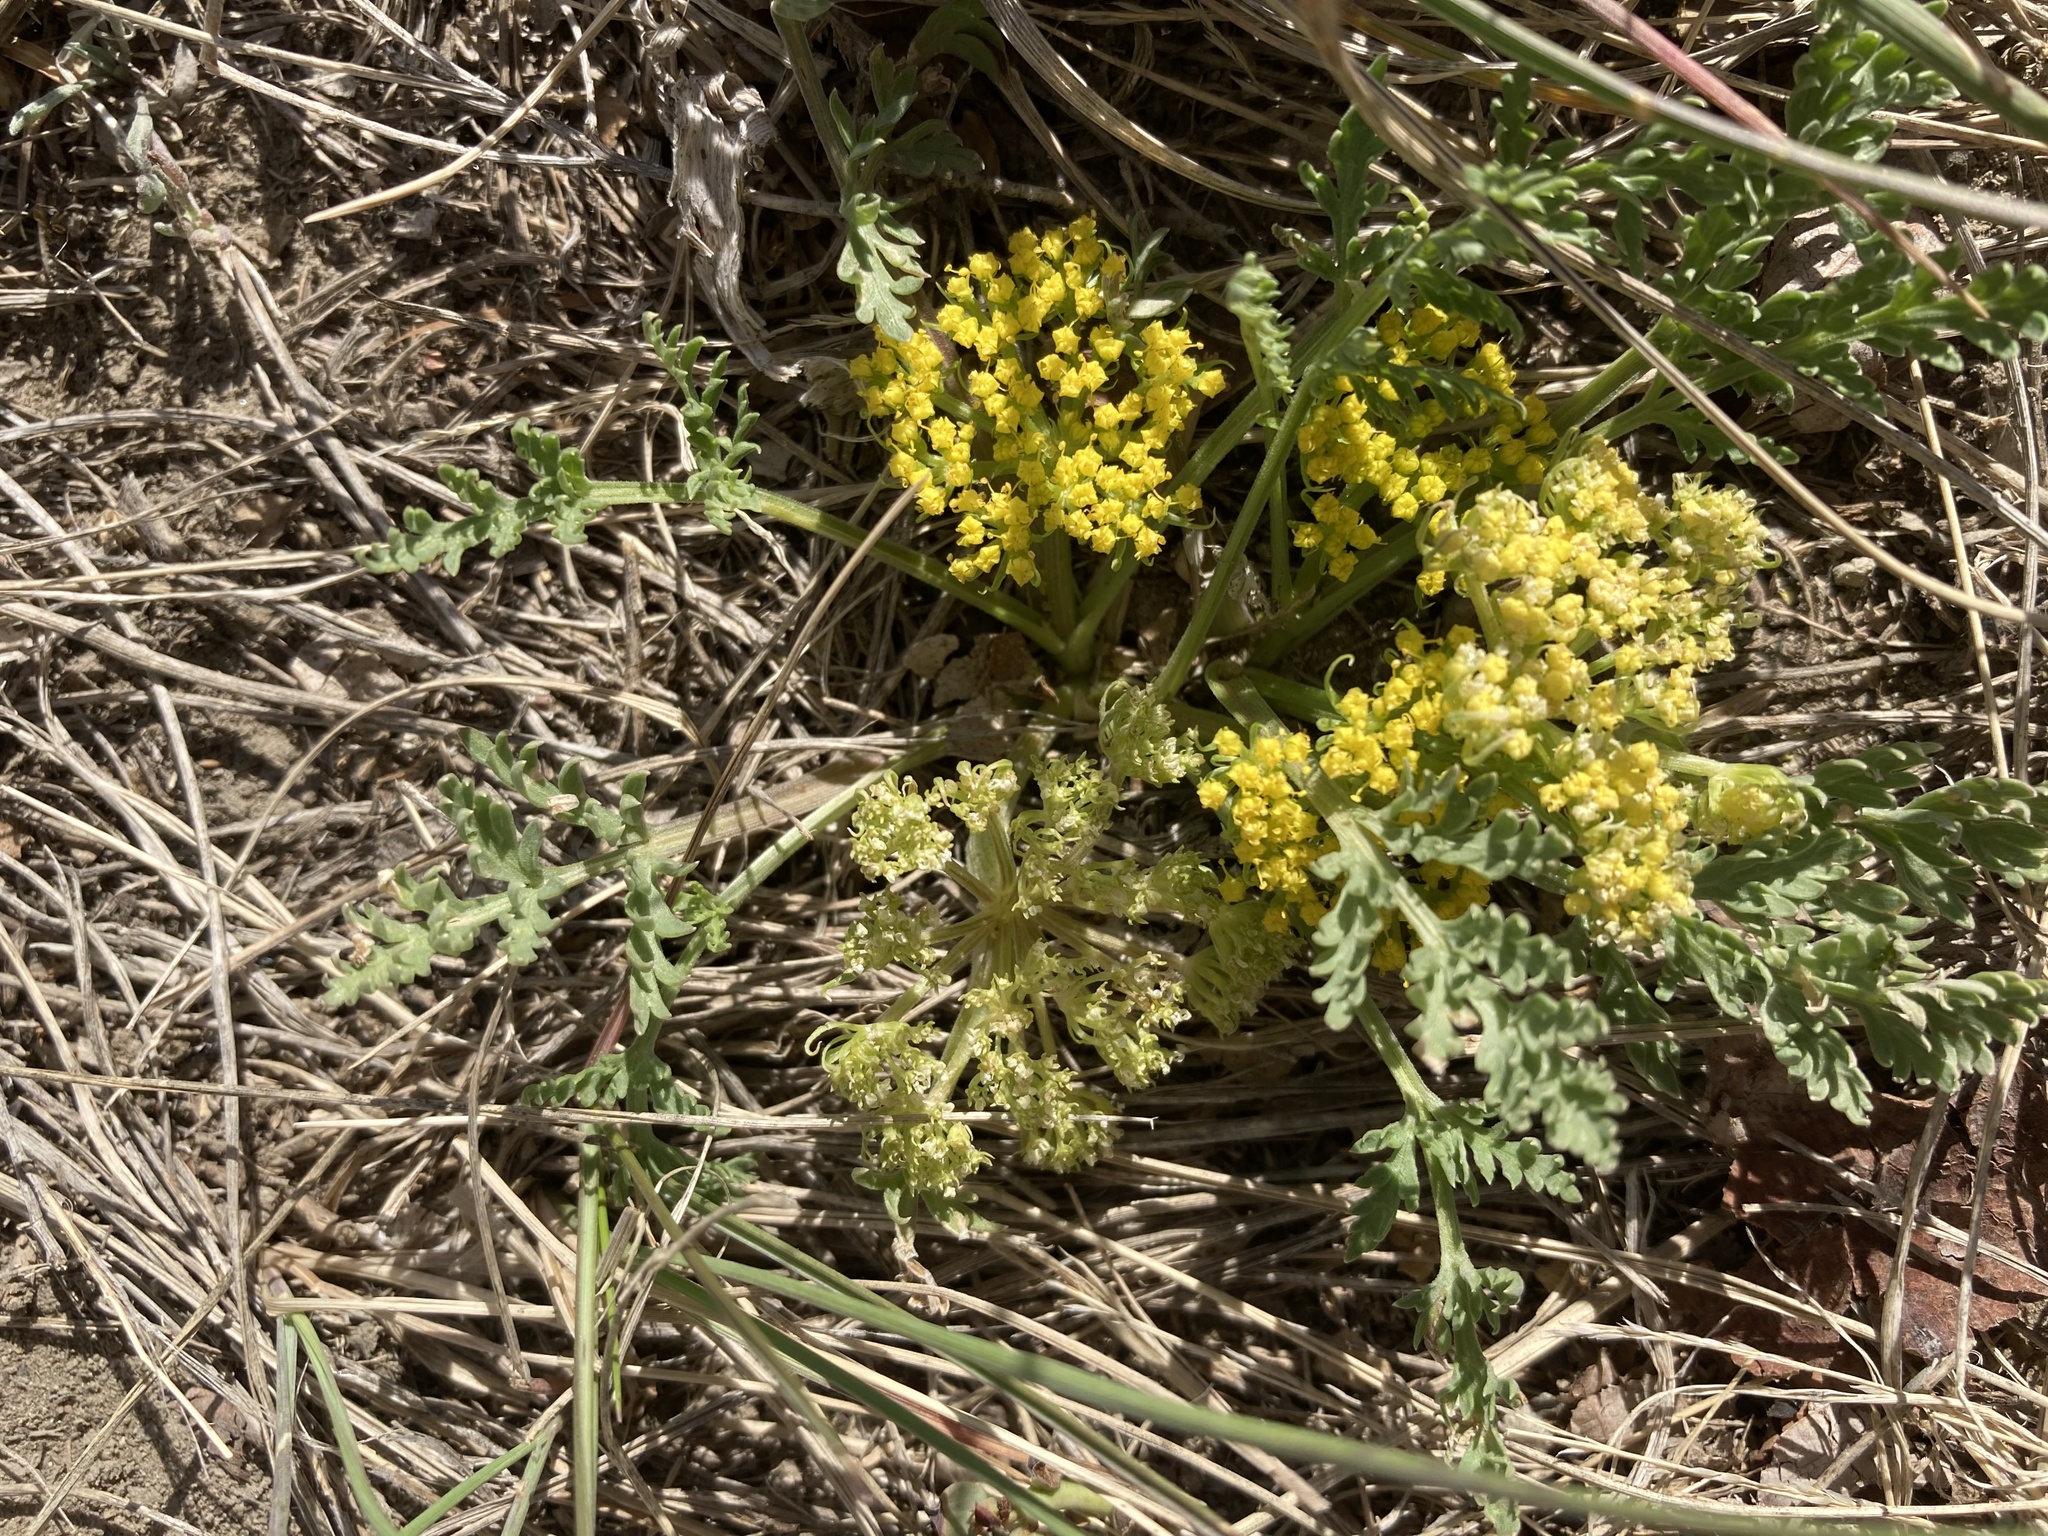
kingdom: Plantae
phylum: Tracheophyta
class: Magnoliopsida
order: Apiales
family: Apiaceae
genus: Musineon
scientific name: Musineon divaricatum
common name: Plains musineon
